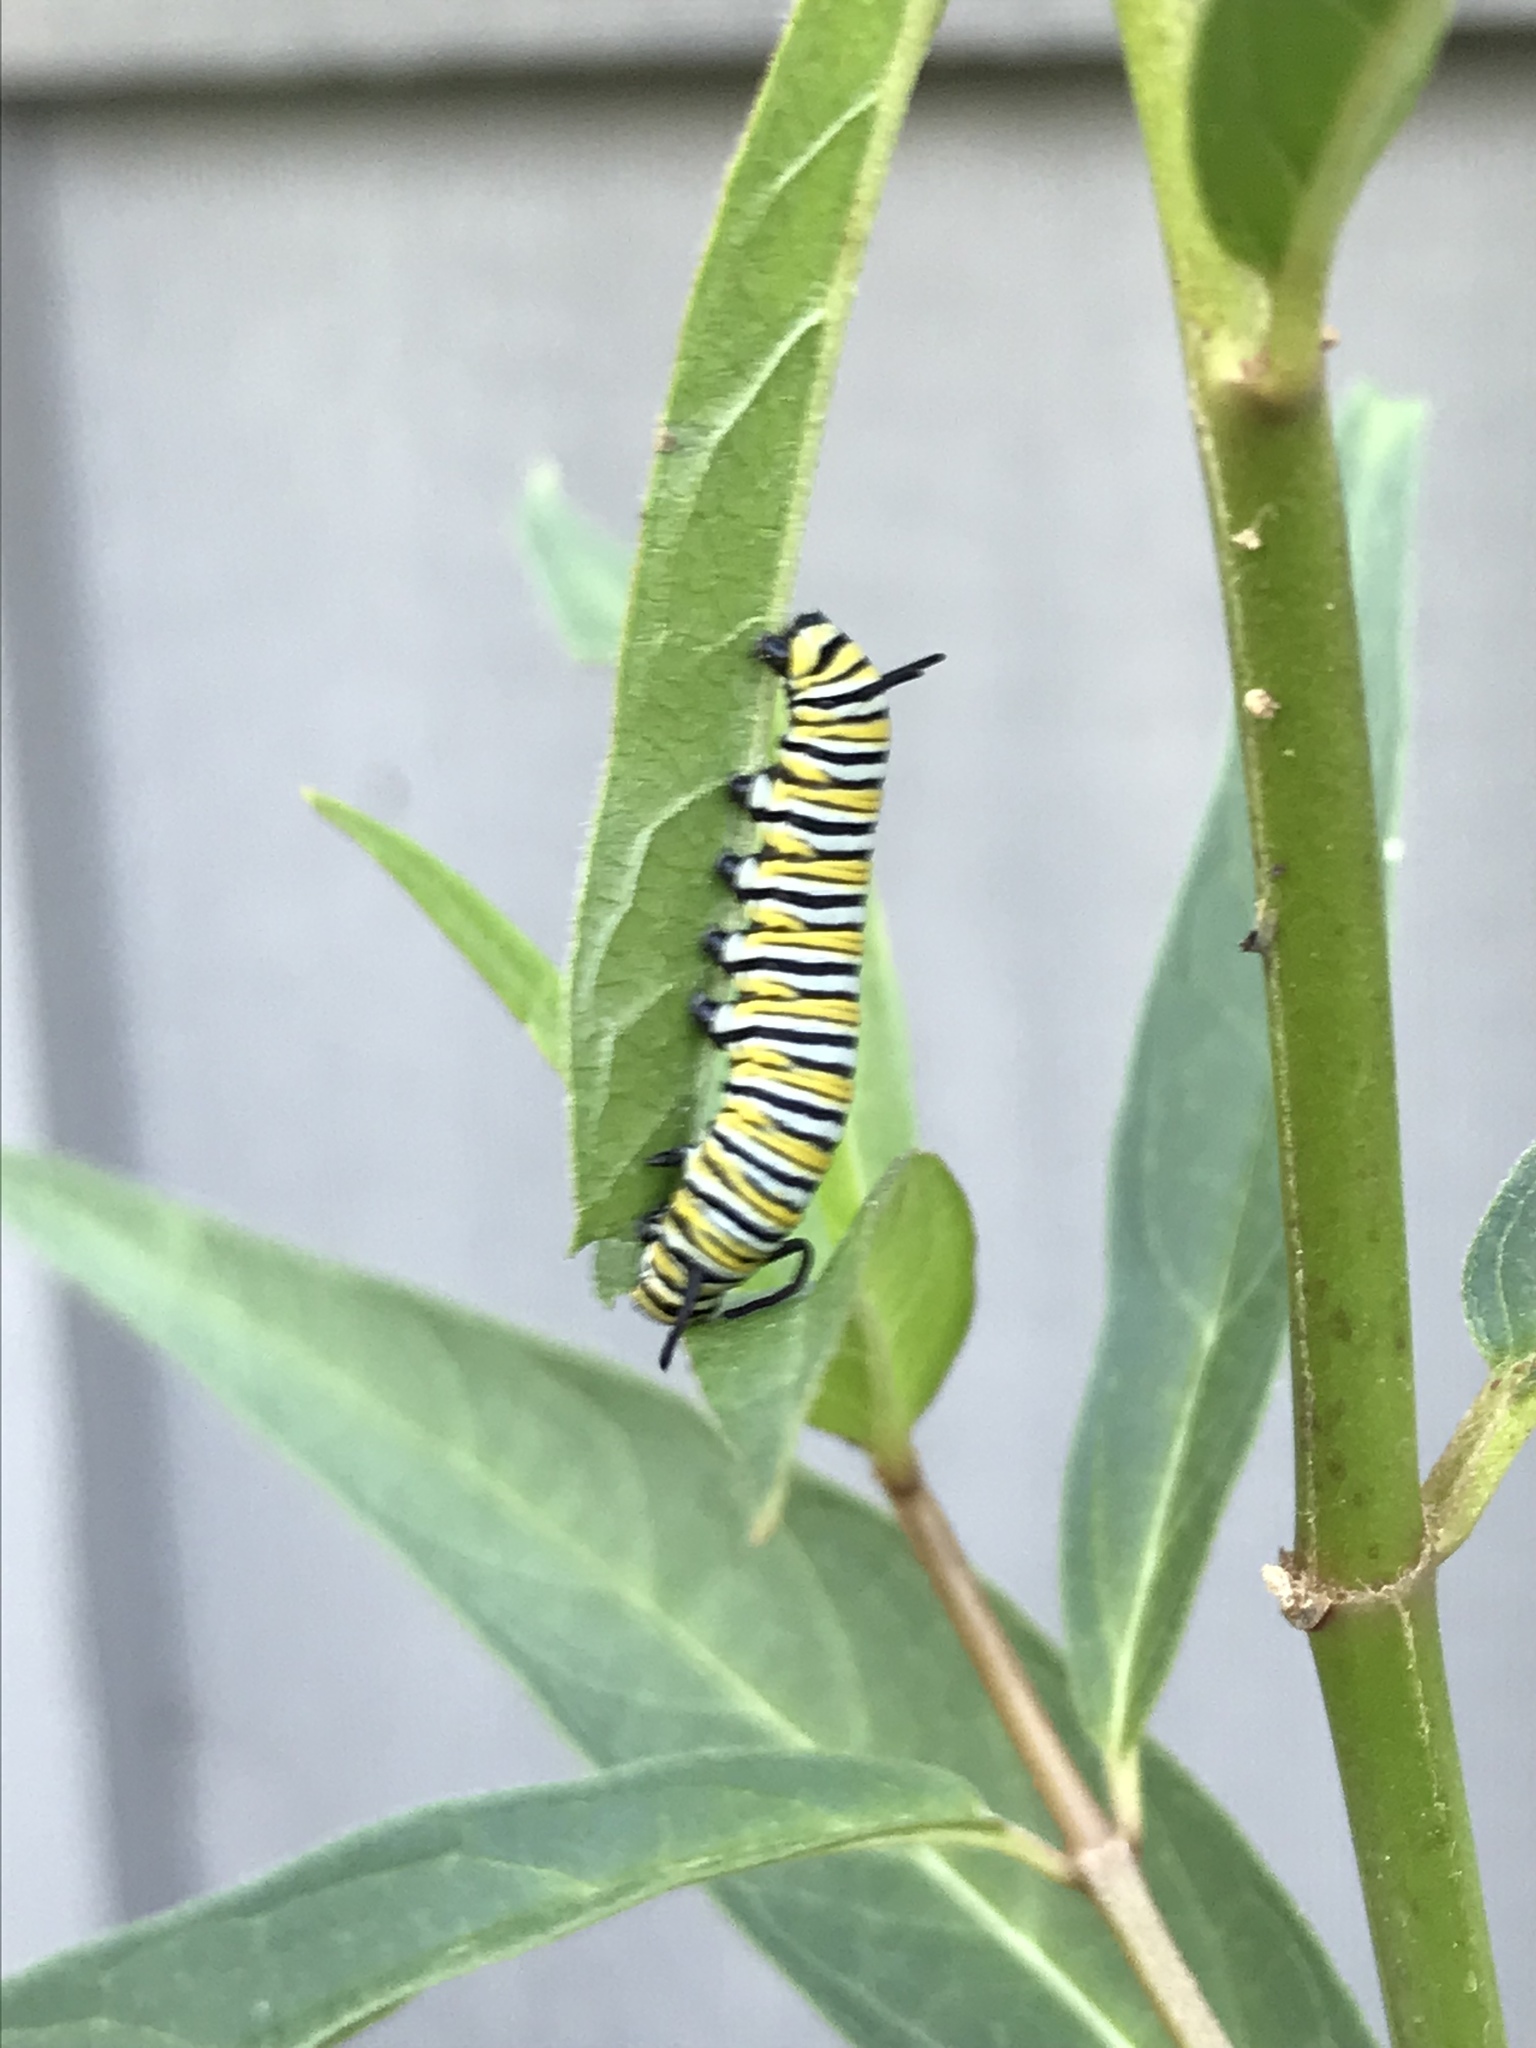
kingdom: Animalia
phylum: Arthropoda
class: Insecta
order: Lepidoptera
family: Nymphalidae
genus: Danaus
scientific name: Danaus plexippus
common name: Monarch
